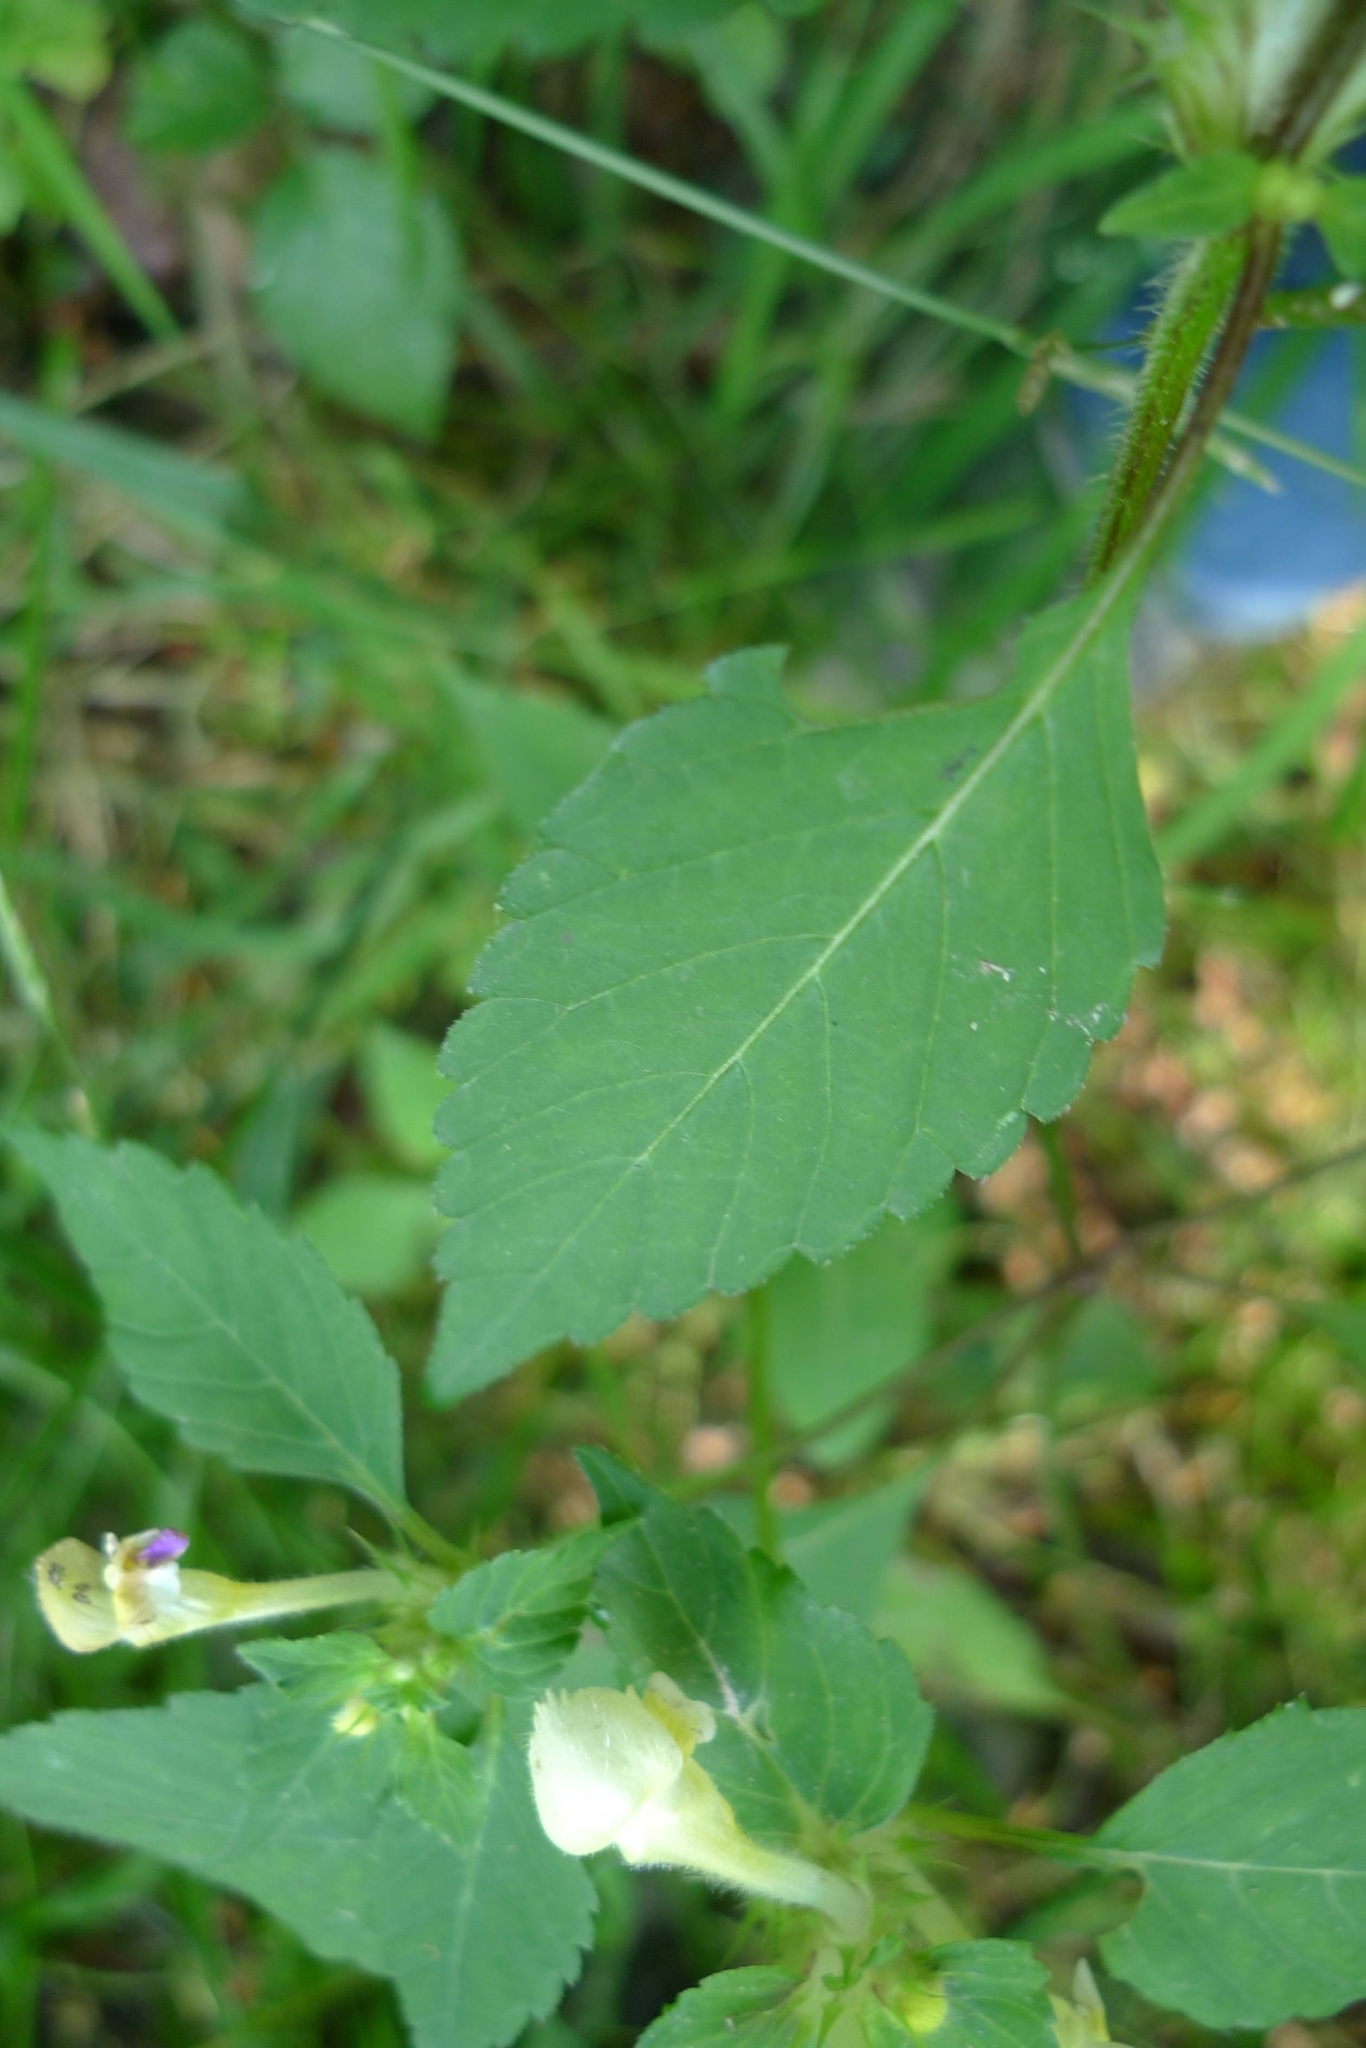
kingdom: Plantae
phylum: Tracheophyta
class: Magnoliopsida
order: Lamiales
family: Lamiaceae
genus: Galeopsis
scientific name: Galeopsis speciosa
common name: Large-flowered hemp-nettle
